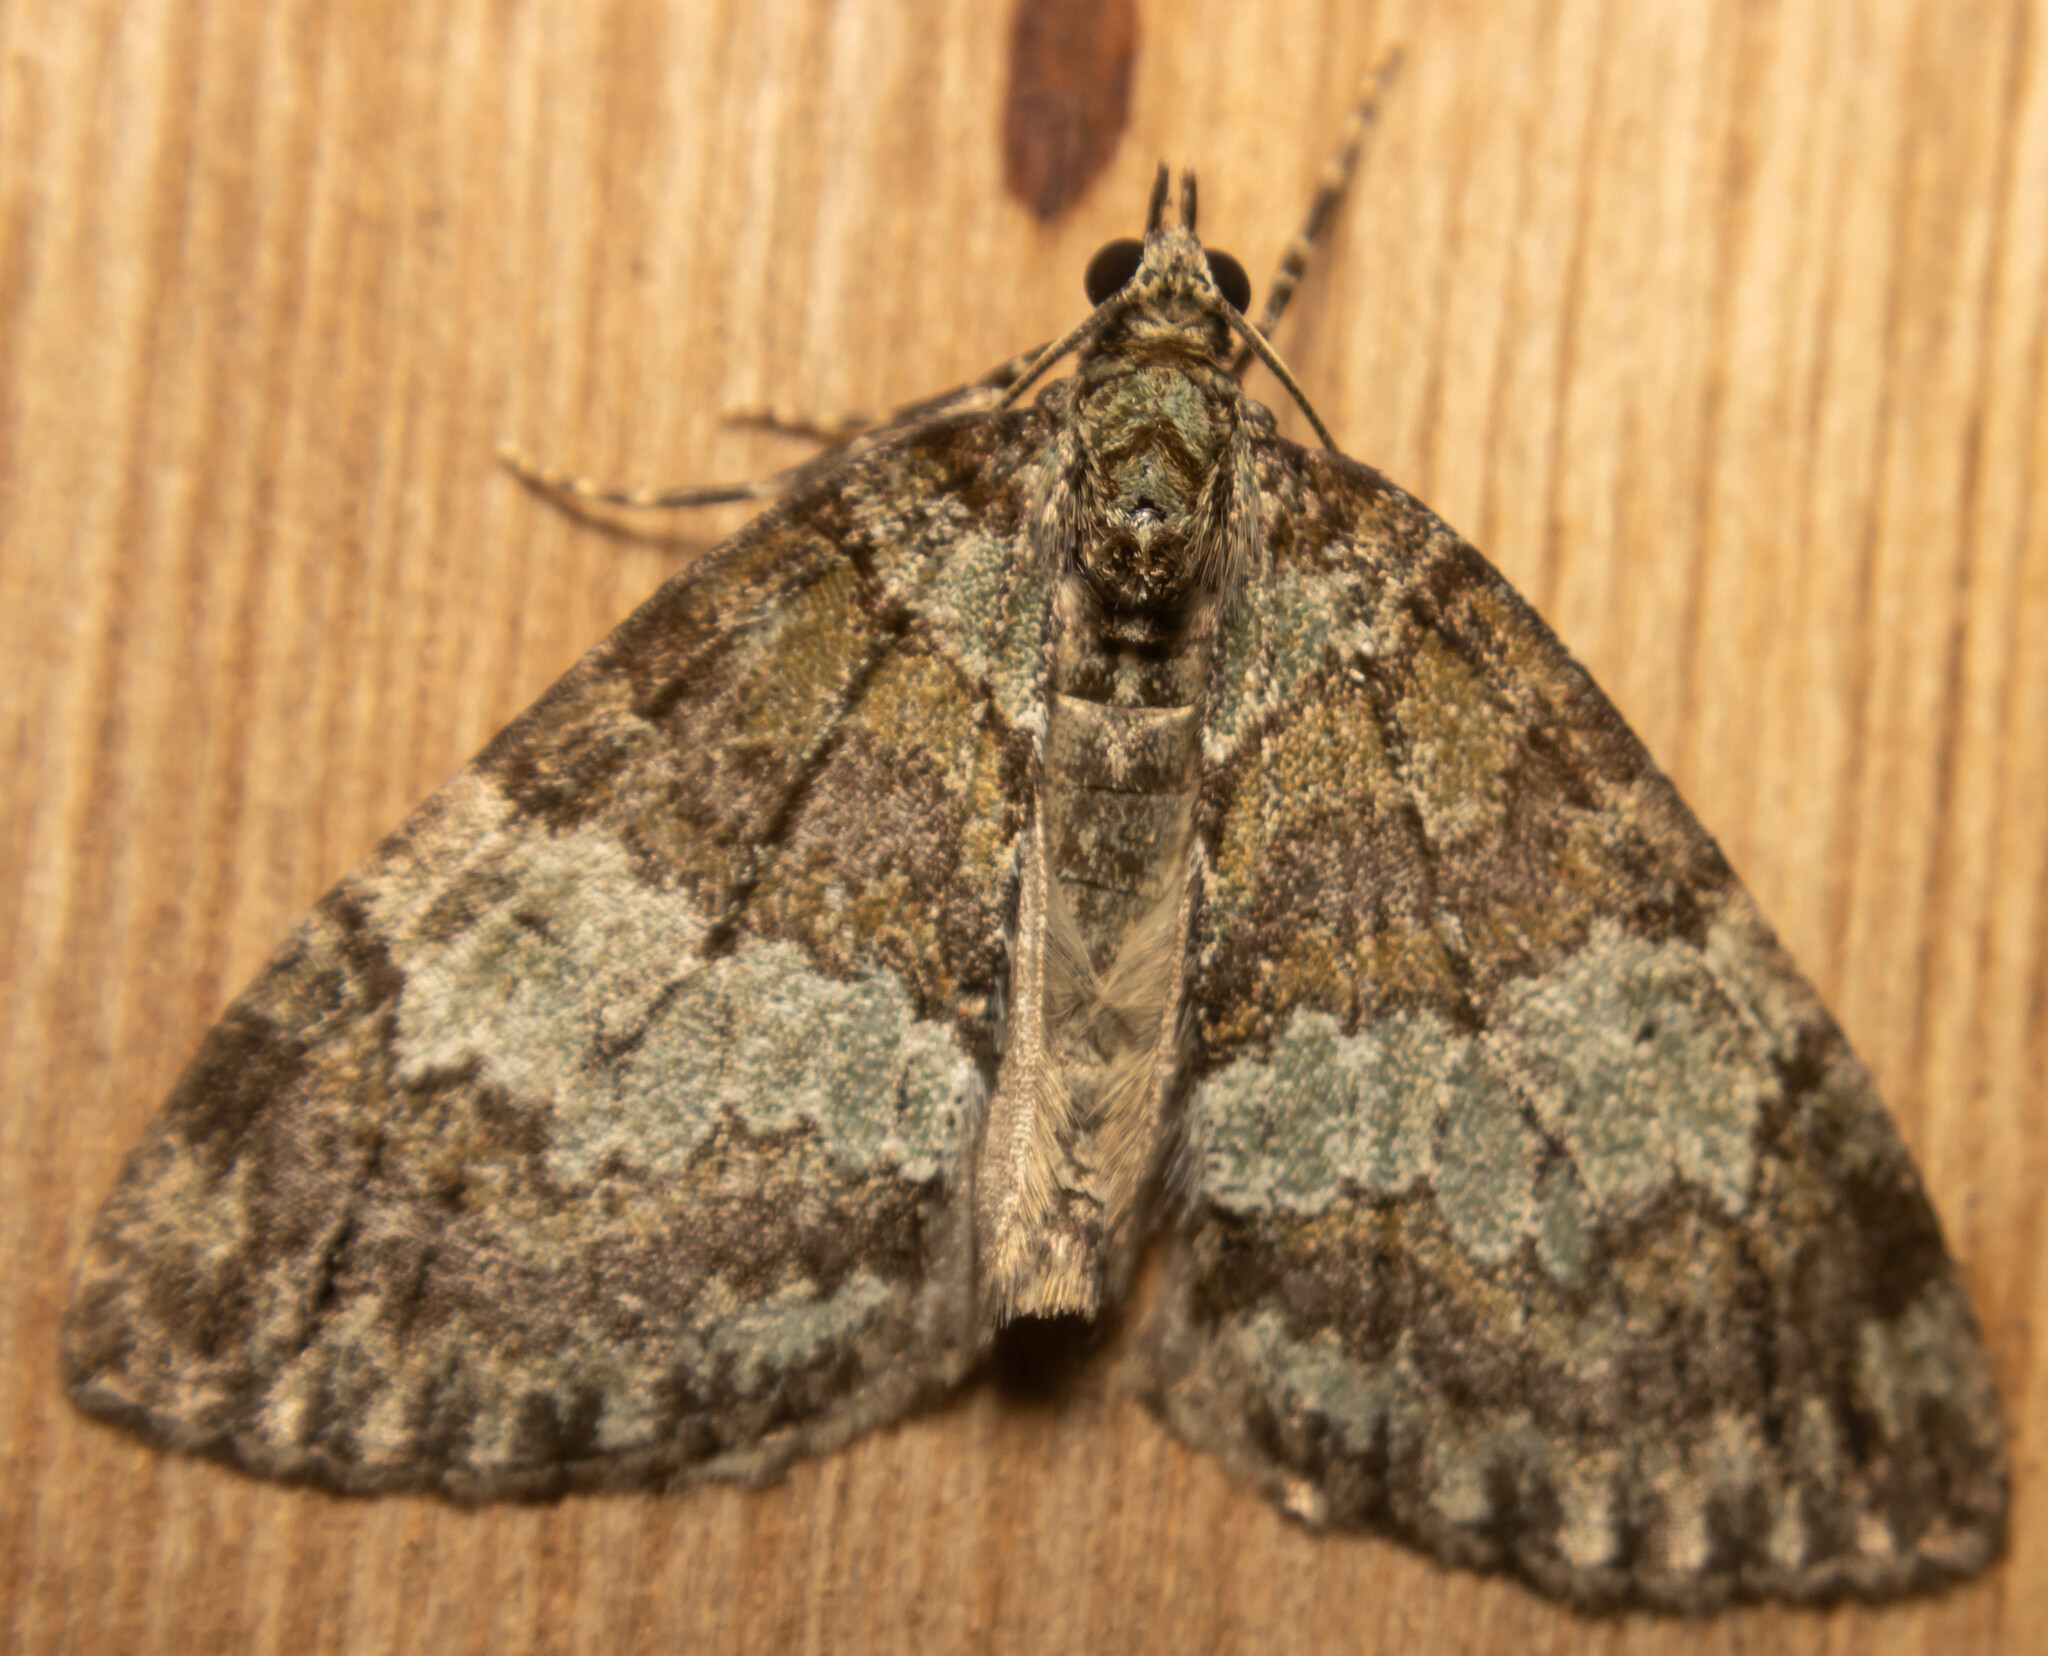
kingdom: Animalia
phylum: Arthropoda
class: Insecta
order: Lepidoptera
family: Geometridae
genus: Hydriomena
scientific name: Hydriomena impluviata
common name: May highflyer
